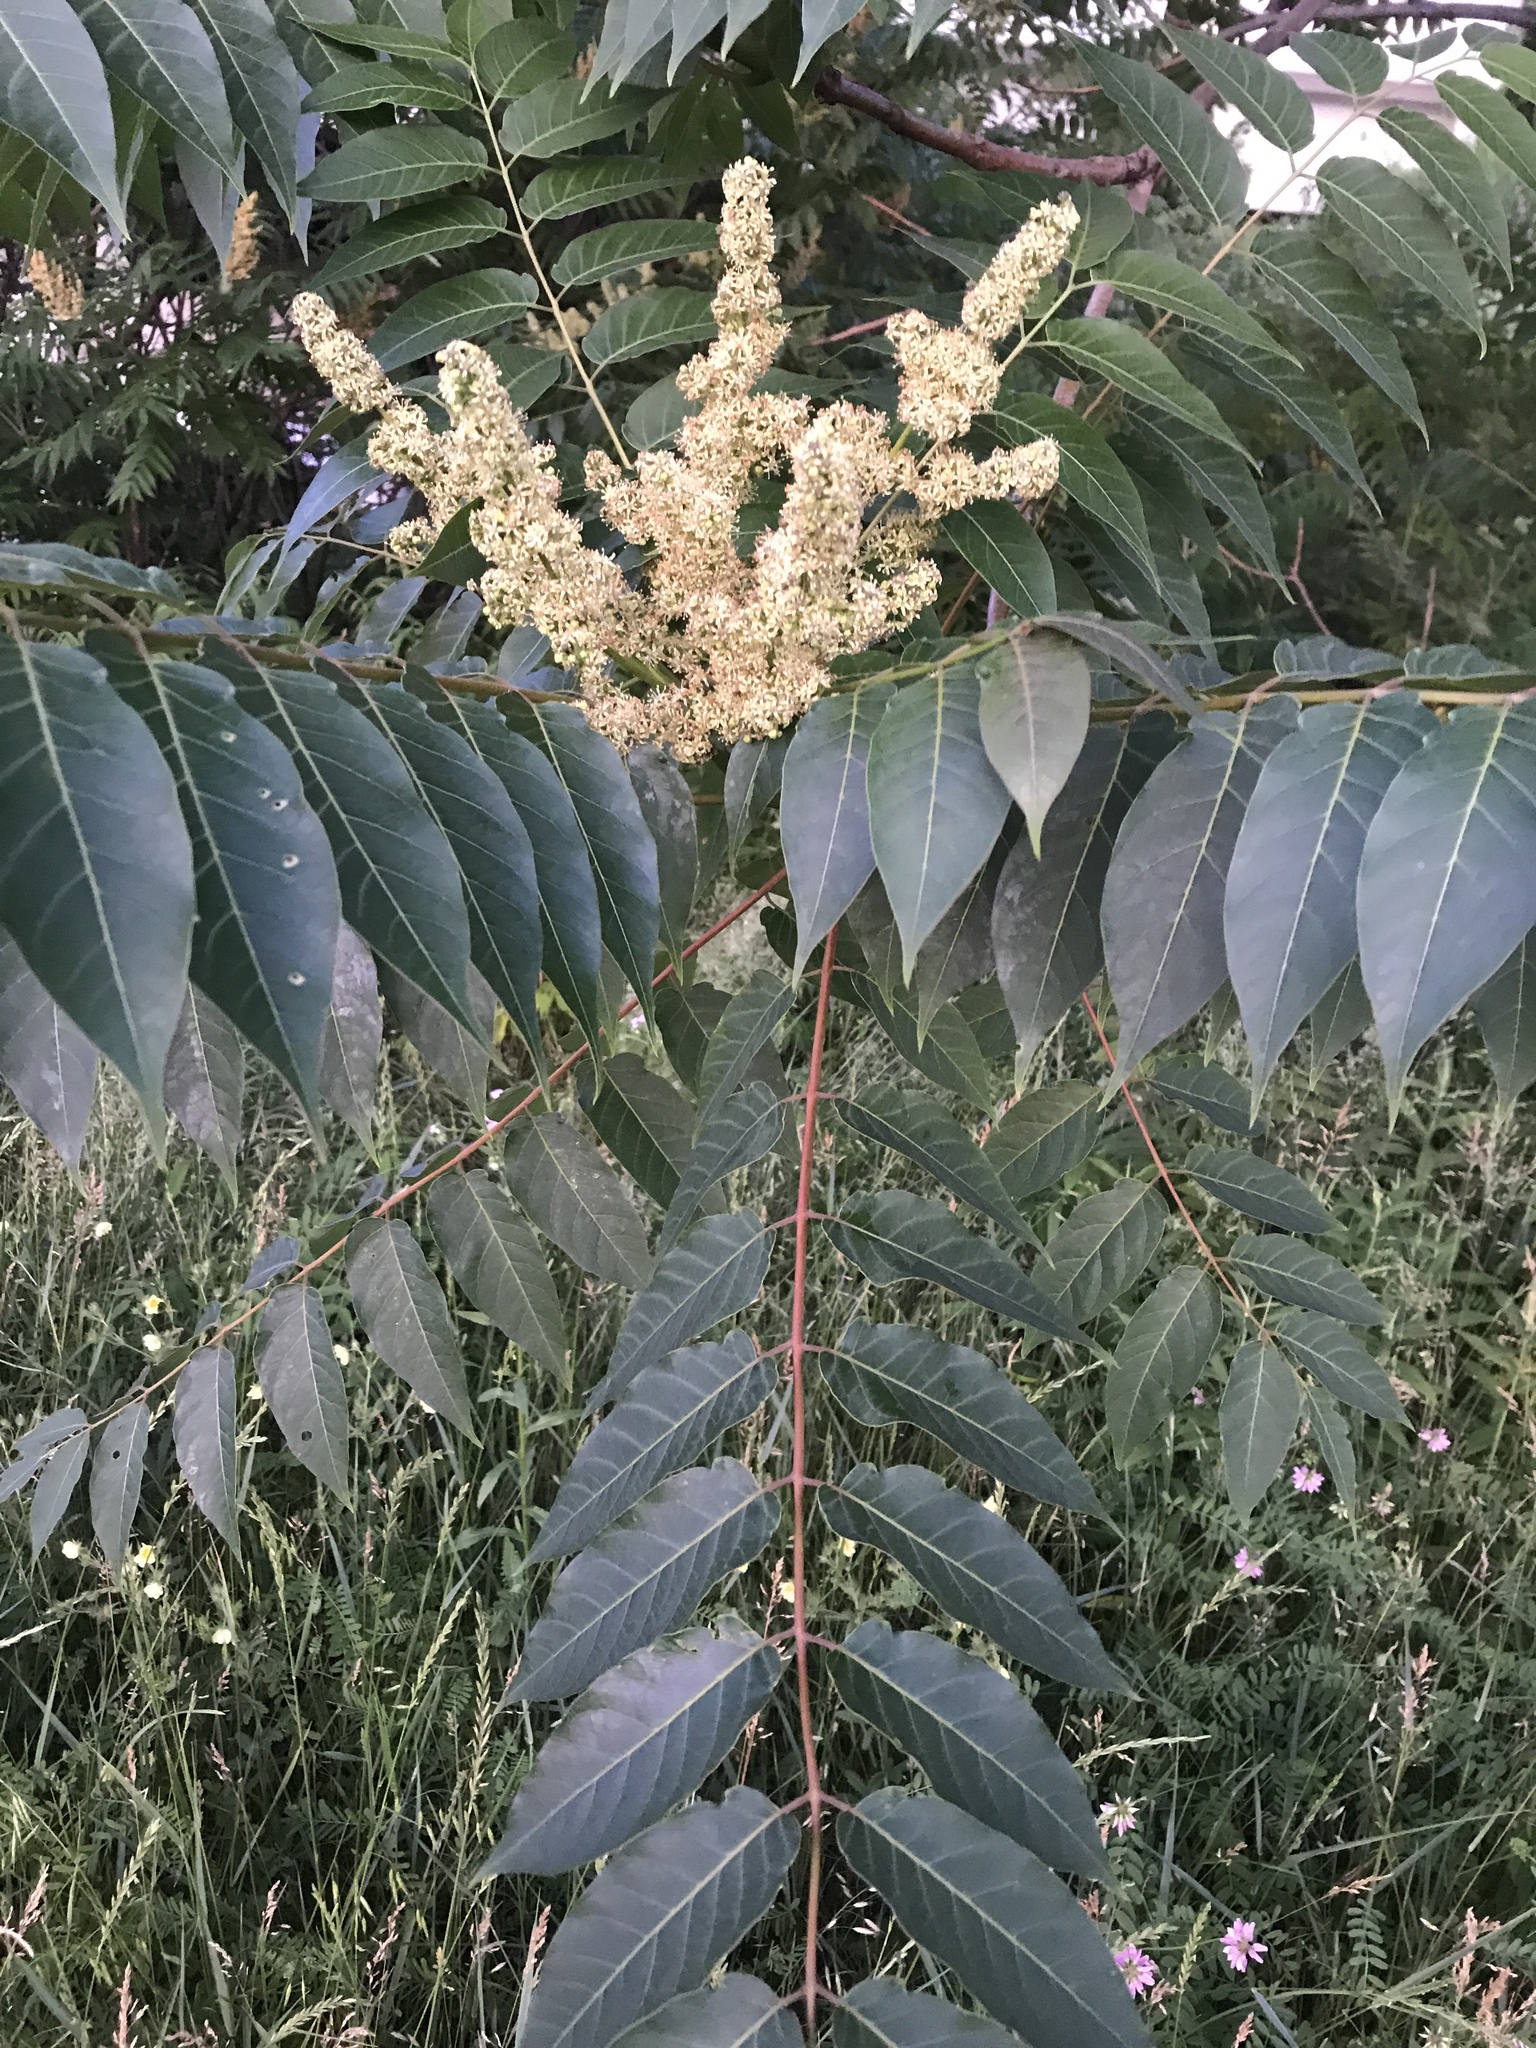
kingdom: Plantae
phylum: Tracheophyta
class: Magnoliopsida
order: Sapindales
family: Simaroubaceae
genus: Ailanthus
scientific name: Ailanthus altissima
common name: Tree-of-heaven
